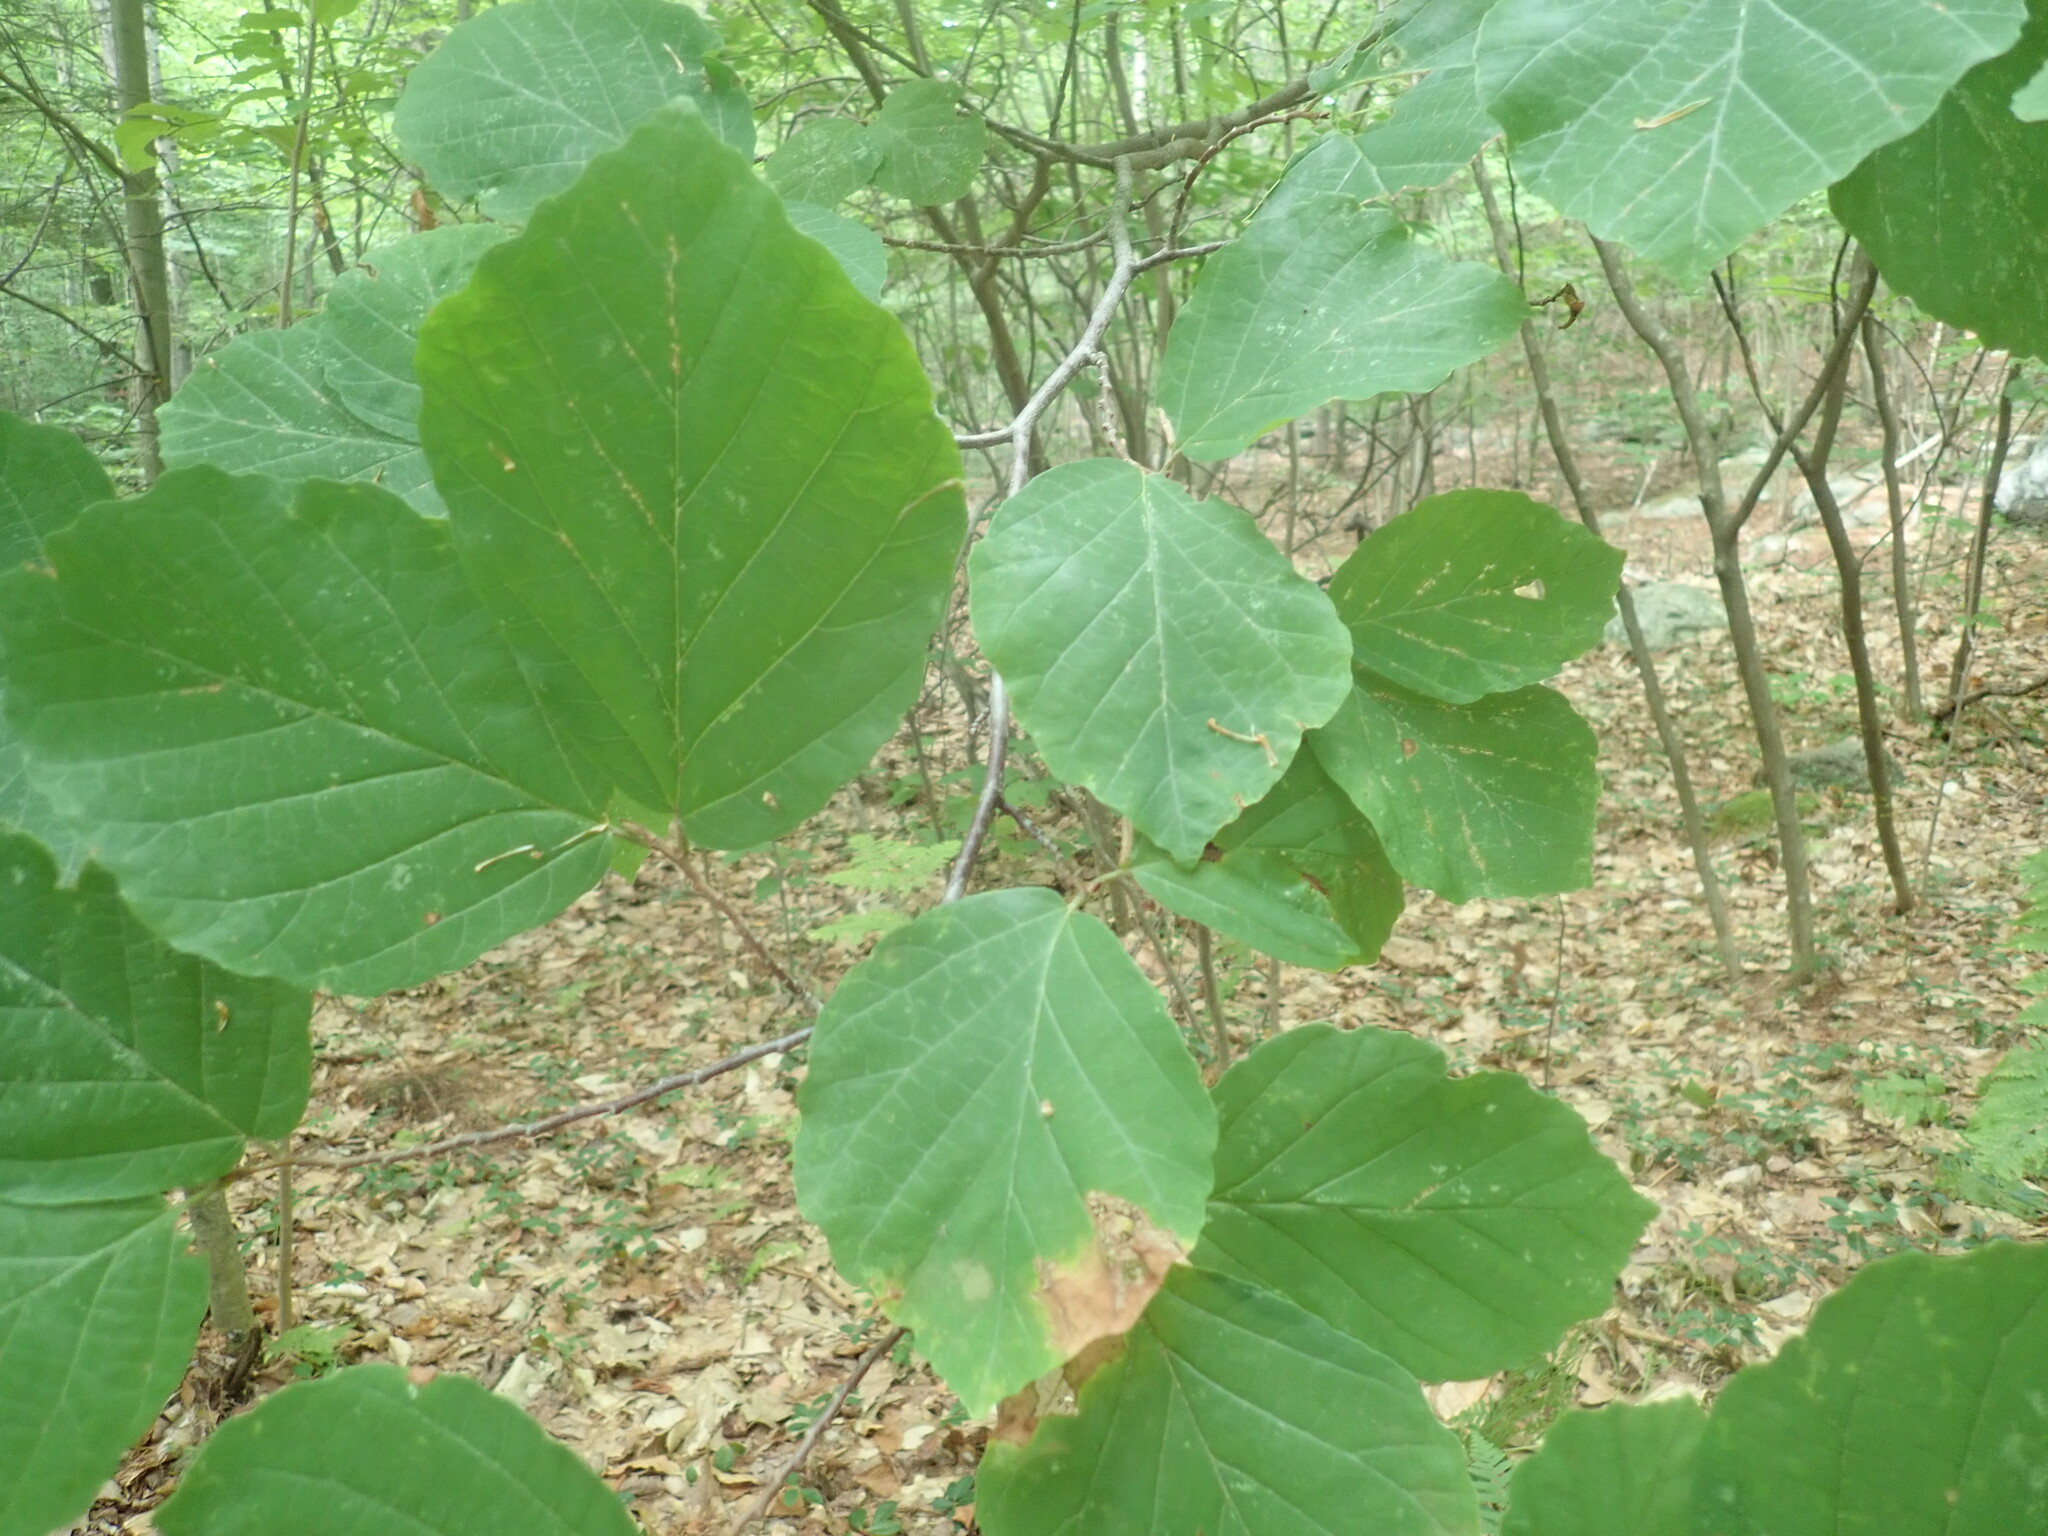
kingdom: Plantae
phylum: Tracheophyta
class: Magnoliopsida
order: Saxifragales
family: Hamamelidaceae
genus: Hamamelis
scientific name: Hamamelis virginiana
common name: Witch-hazel
